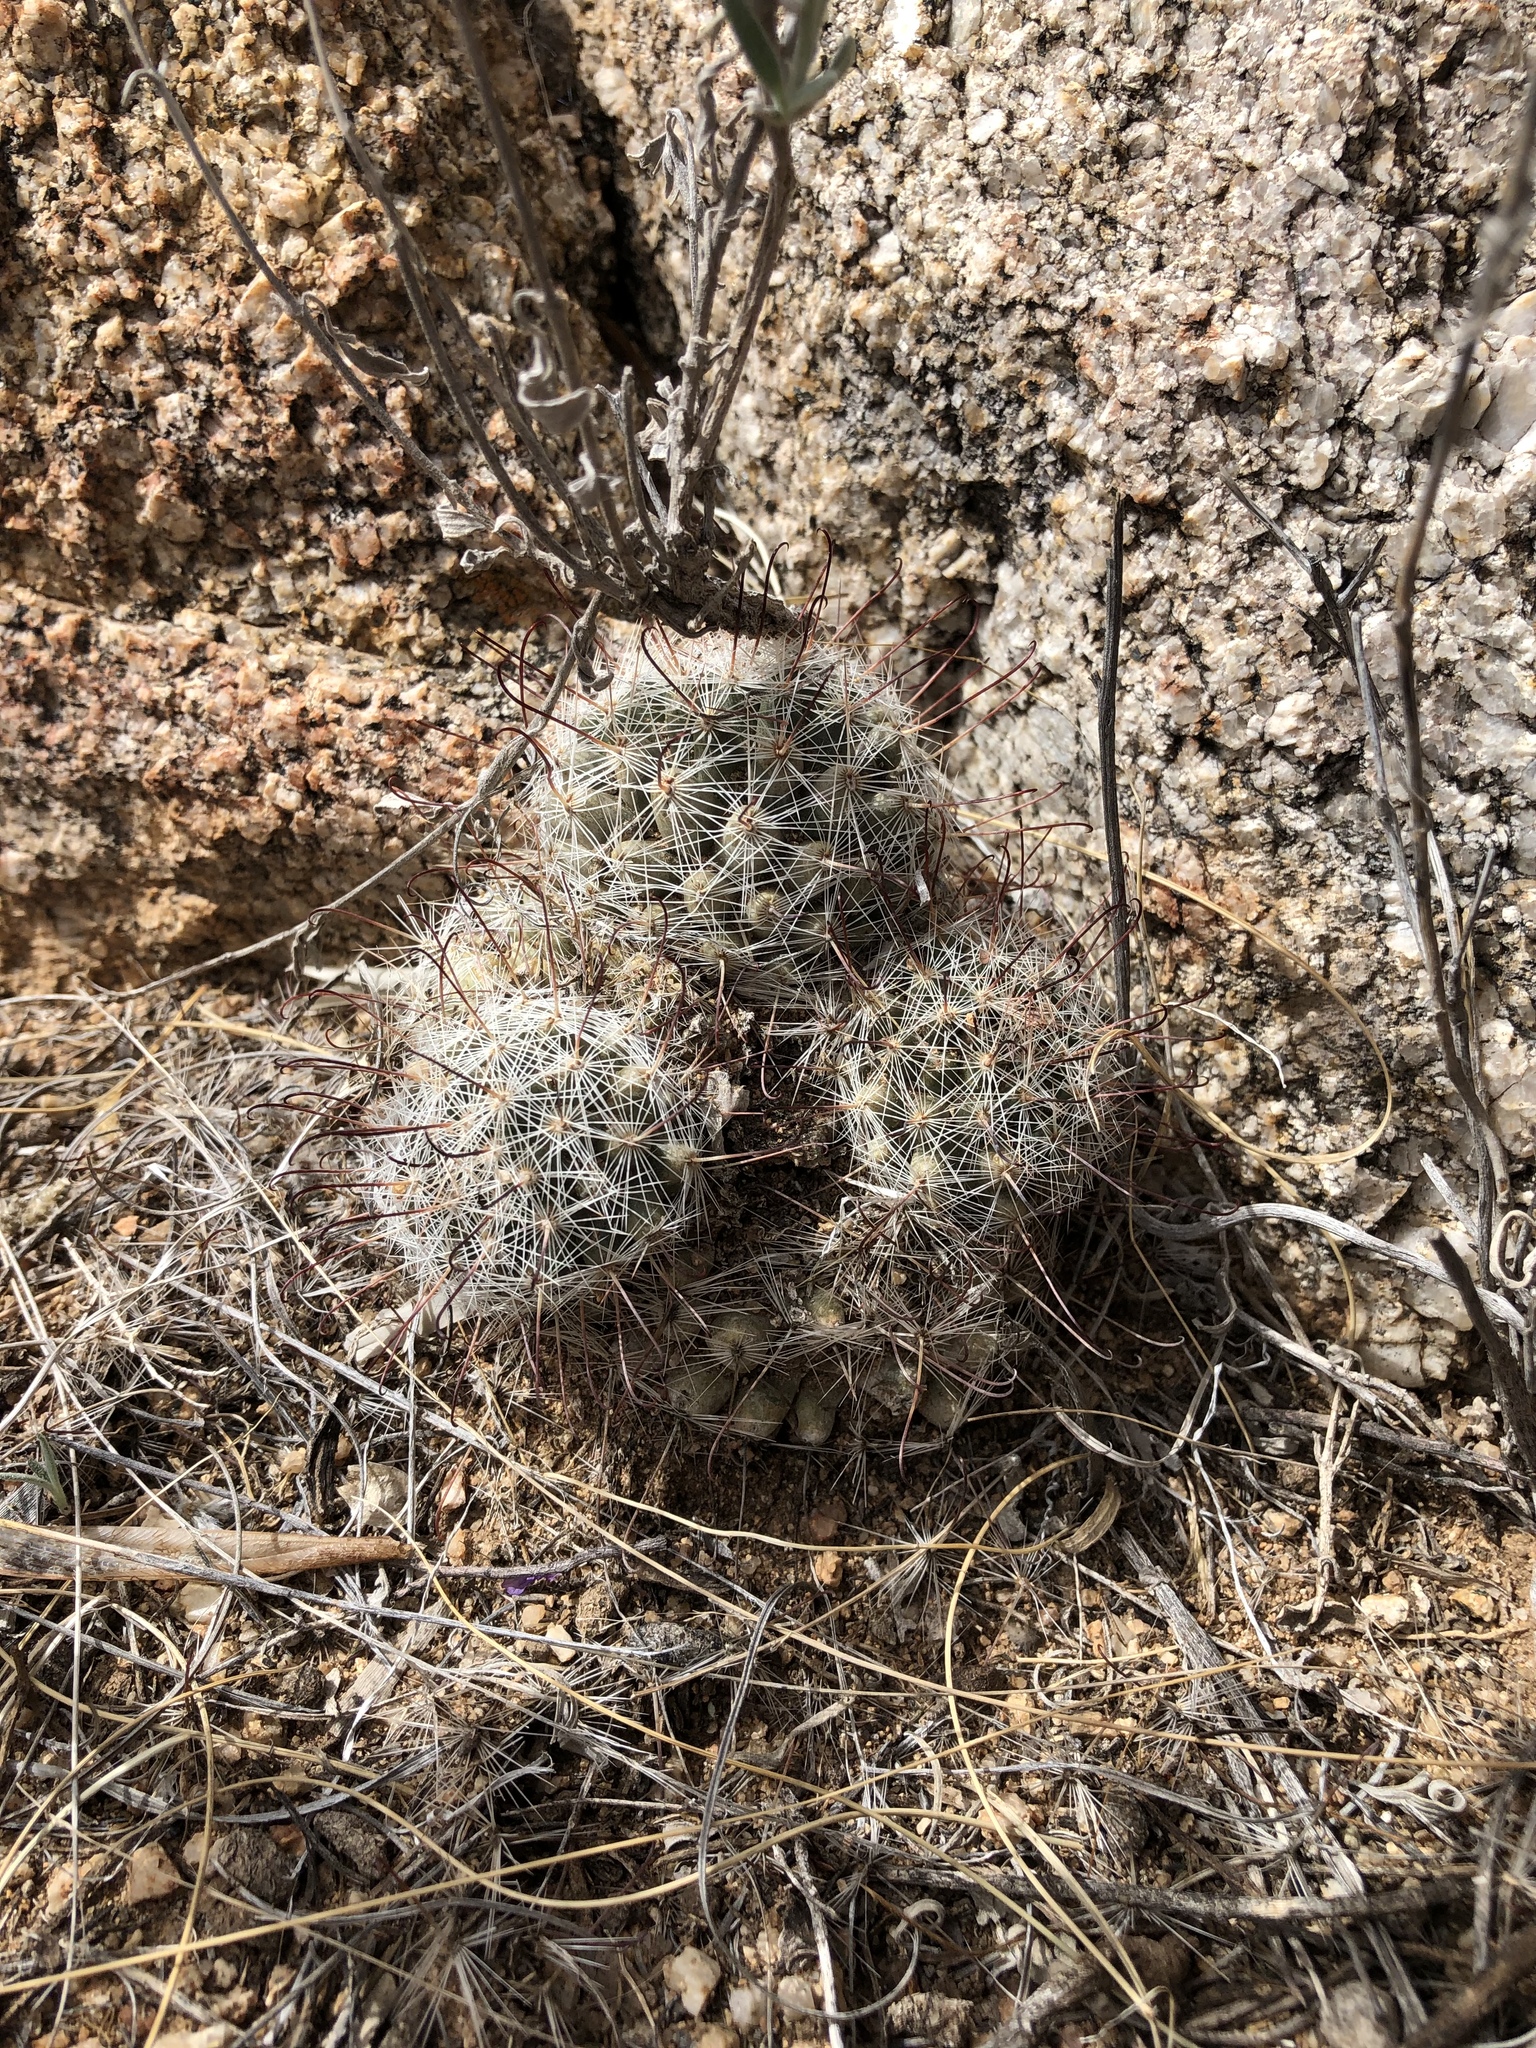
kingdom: Plantae
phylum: Tracheophyta
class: Magnoliopsida
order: Caryophyllales
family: Cactaceae
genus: Cochemiea
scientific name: Cochemiea grahamii
